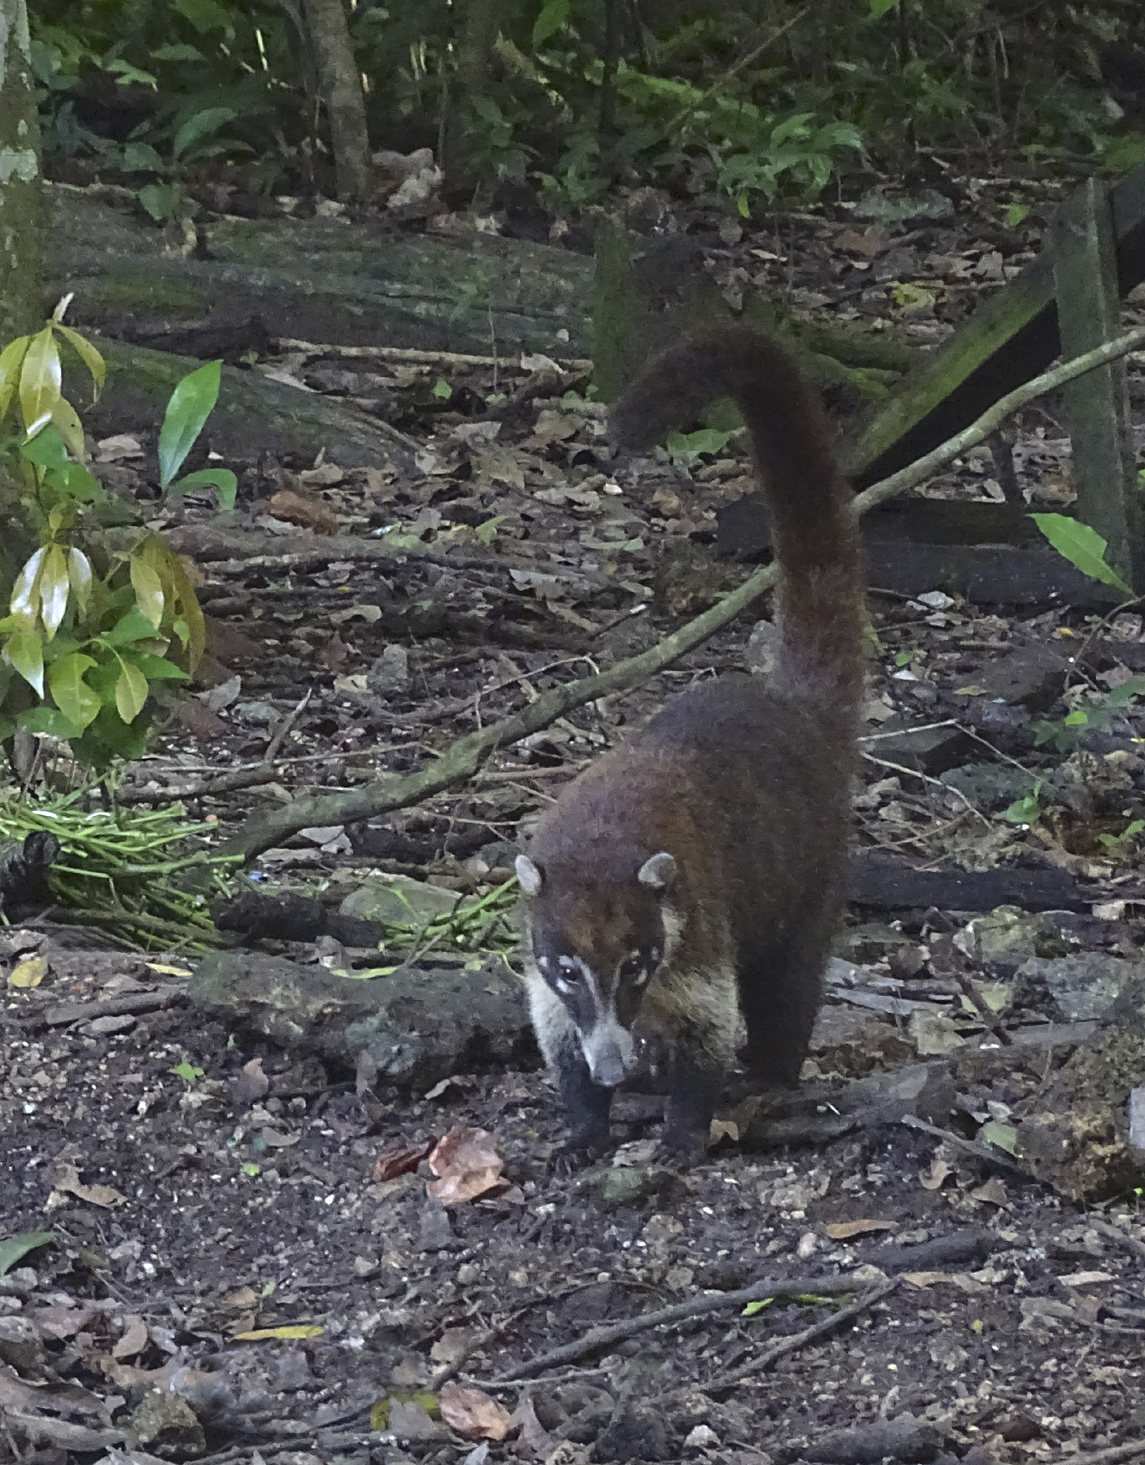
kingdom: Animalia
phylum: Chordata
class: Mammalia
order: Carnivora
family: Procyonidae
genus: Nasua
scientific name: Nasua narica
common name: White-nosed coati
